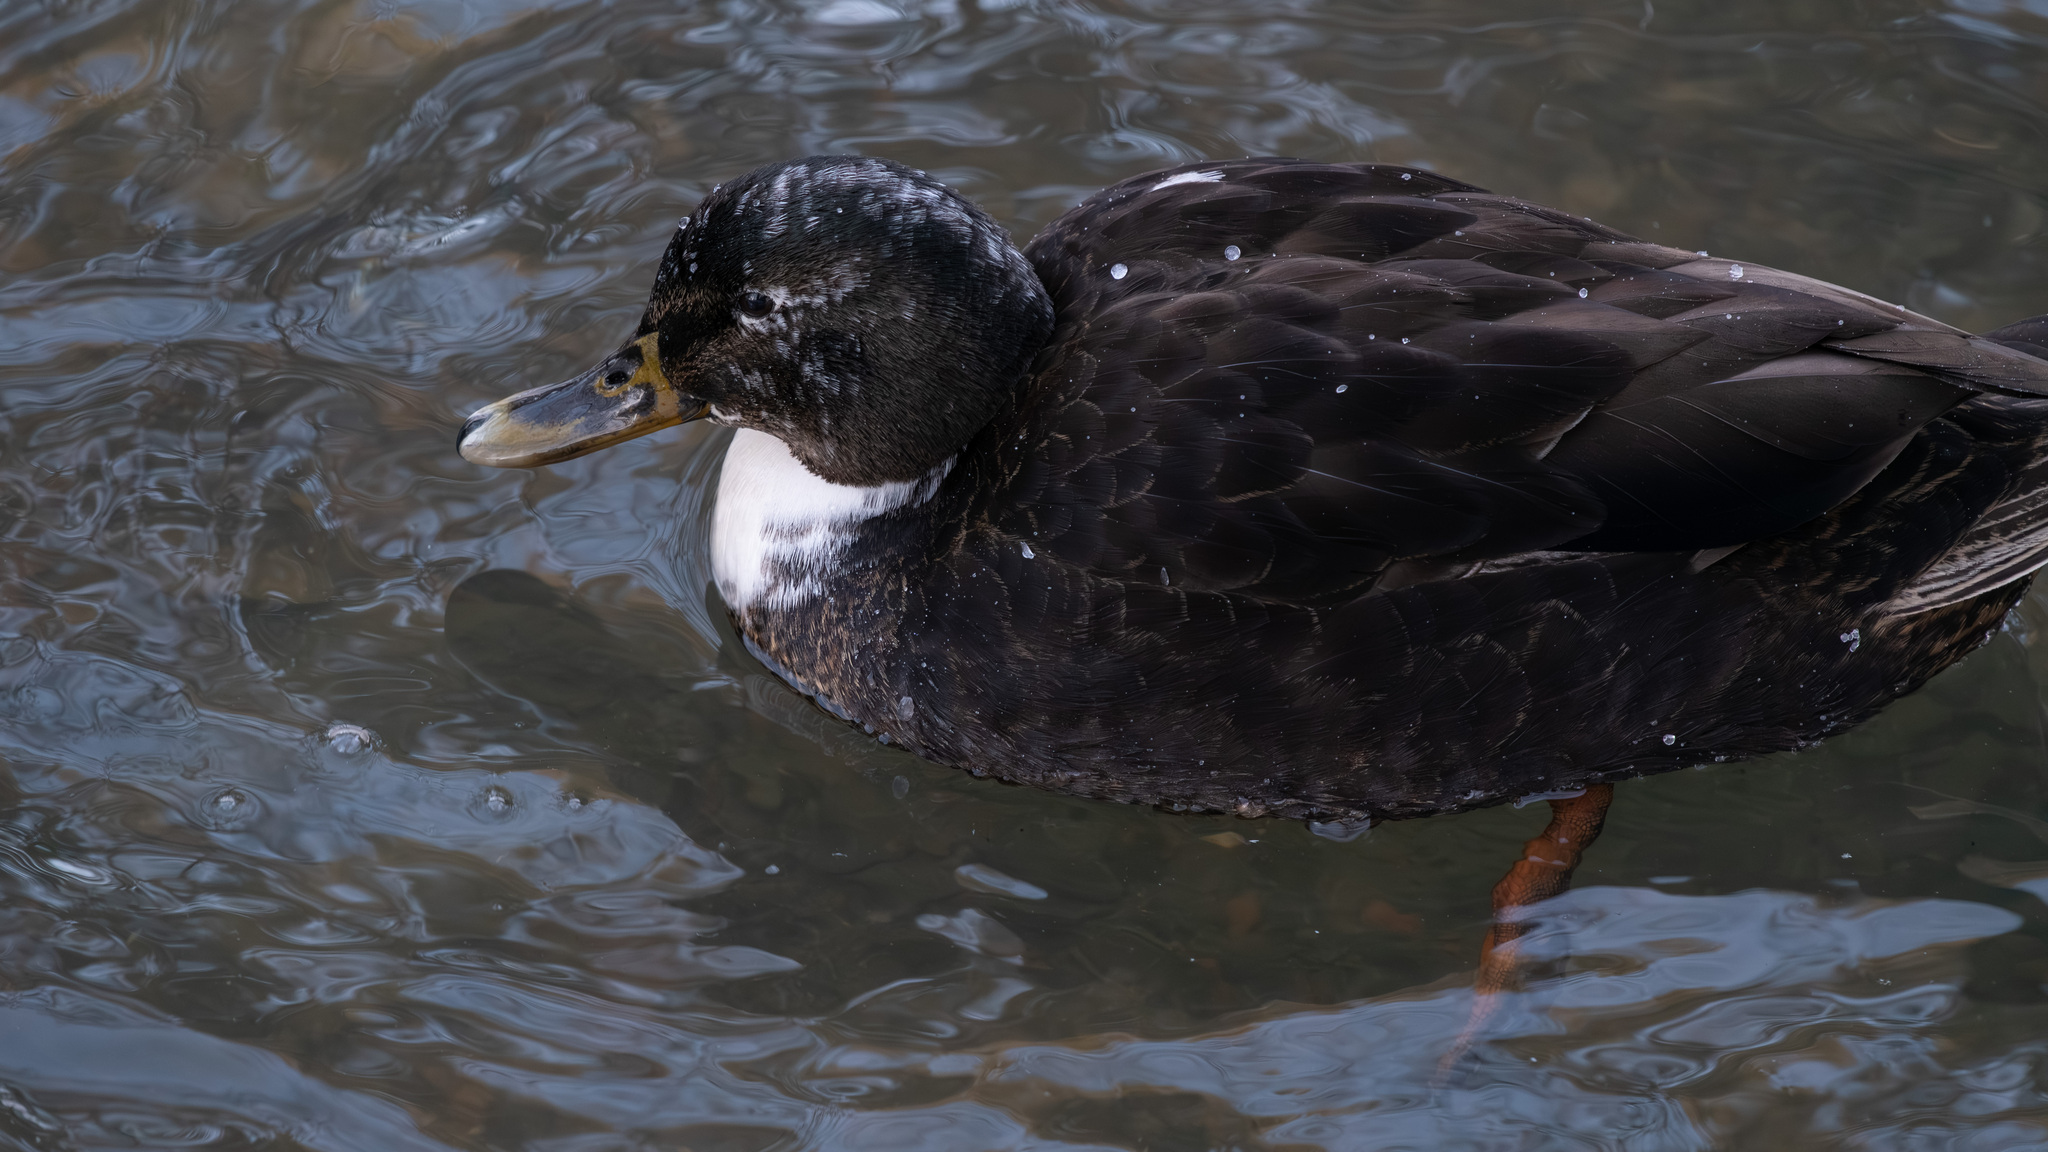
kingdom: Animalia
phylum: Chordata
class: Aves
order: Anseriformes
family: Anatidae
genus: Anas
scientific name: Anas platyrhynchos
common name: Mallard
